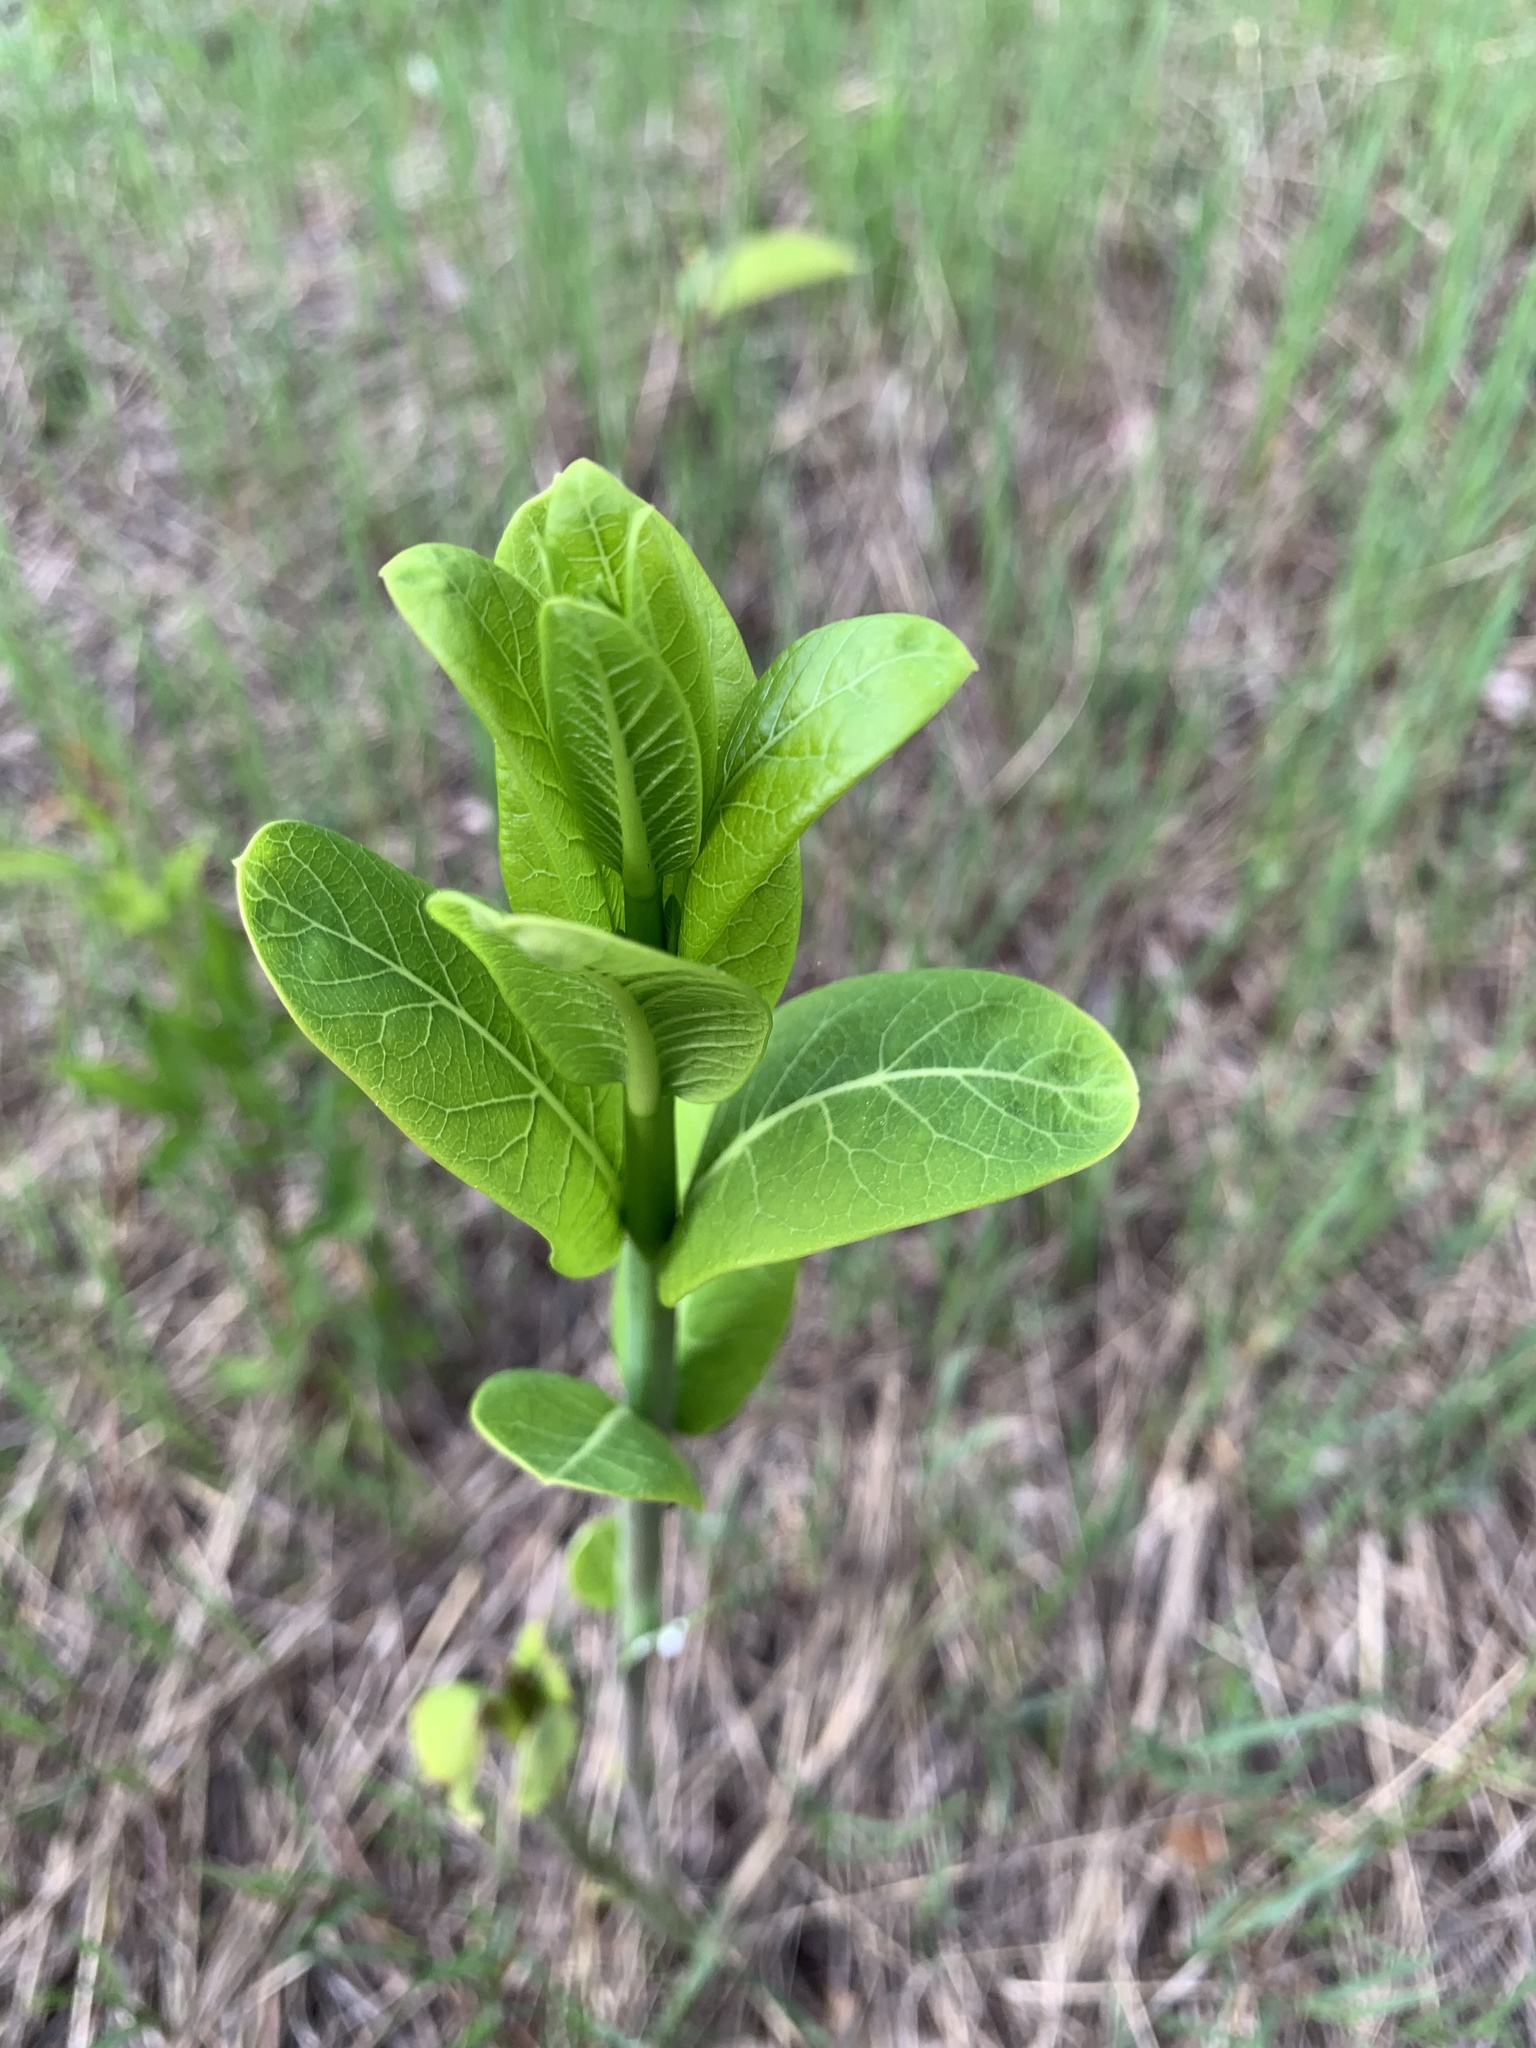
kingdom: Plantae
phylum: Tracheophyta
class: Magnoliopsida
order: Gentianales
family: Apocynaceae
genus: Asclepias
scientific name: Asclepias syriaca
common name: Common milkweed
